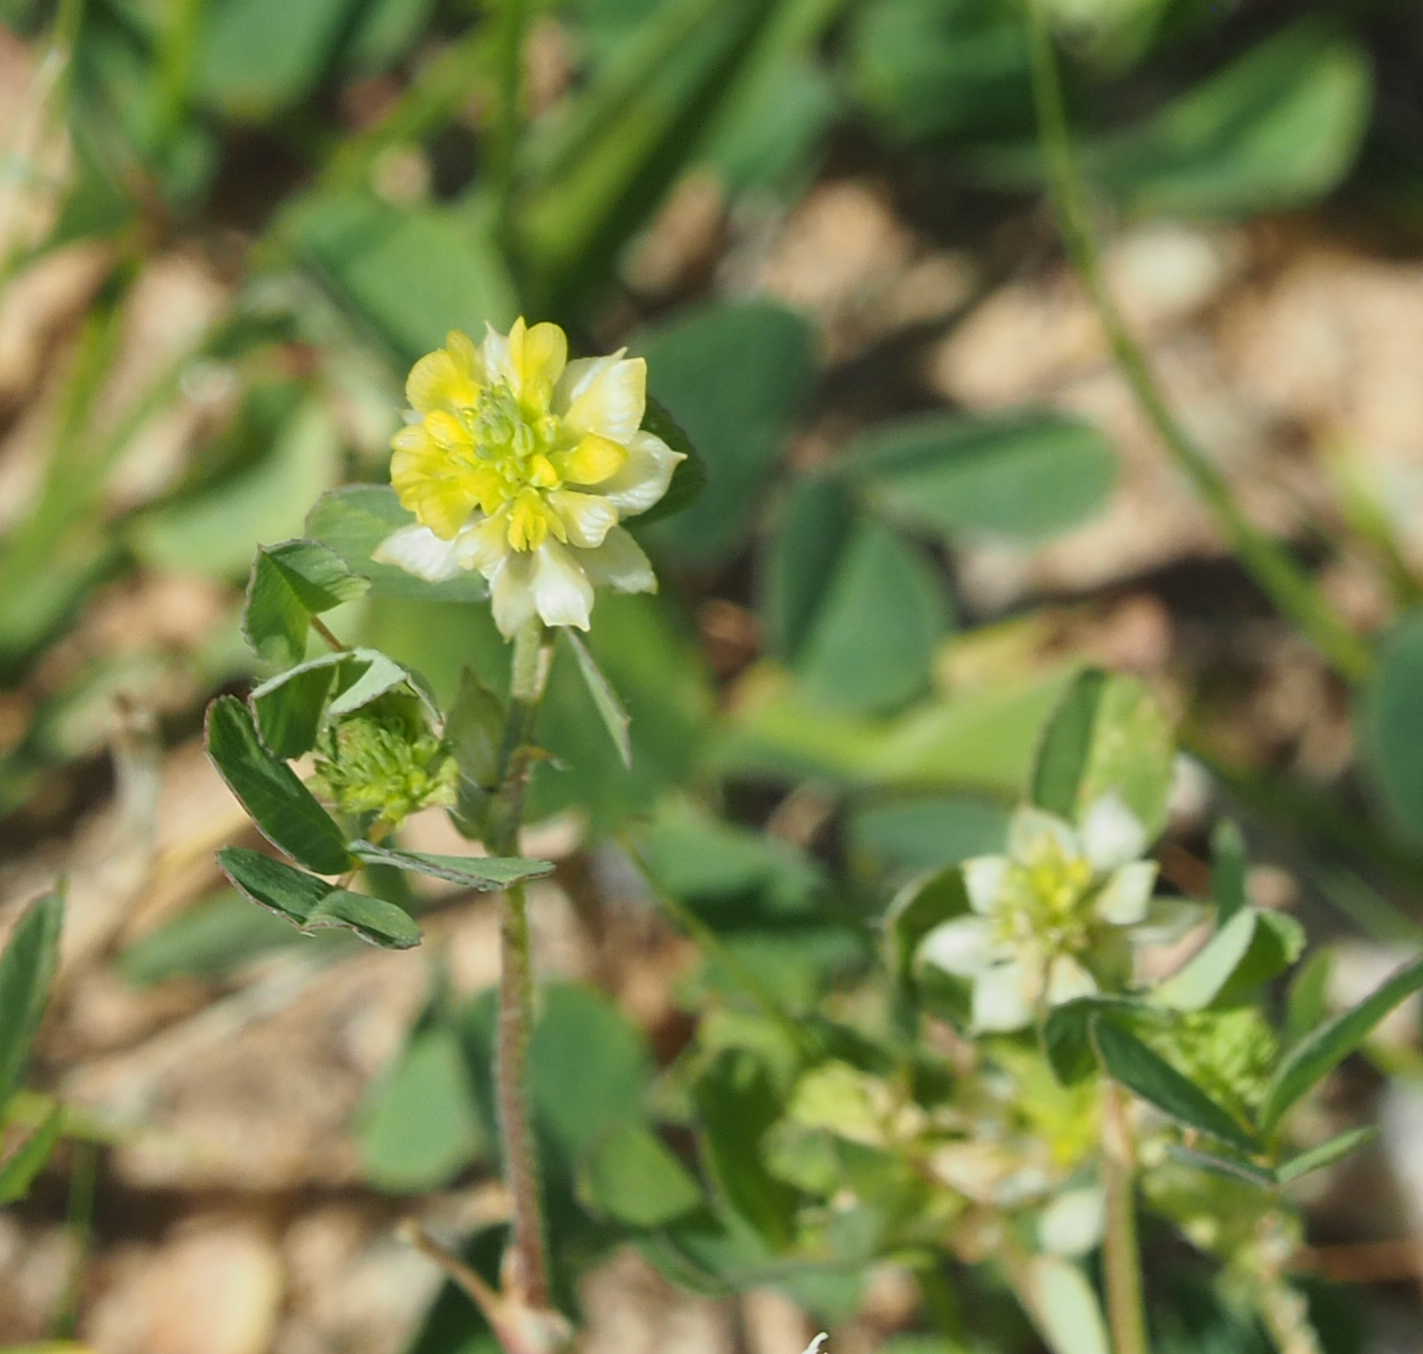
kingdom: Plantae
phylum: Tracheophyta
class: Magnoliopsida
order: Fabales
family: Fabaceae
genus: Trifolium
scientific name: Trifolium campestre
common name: Field clover
